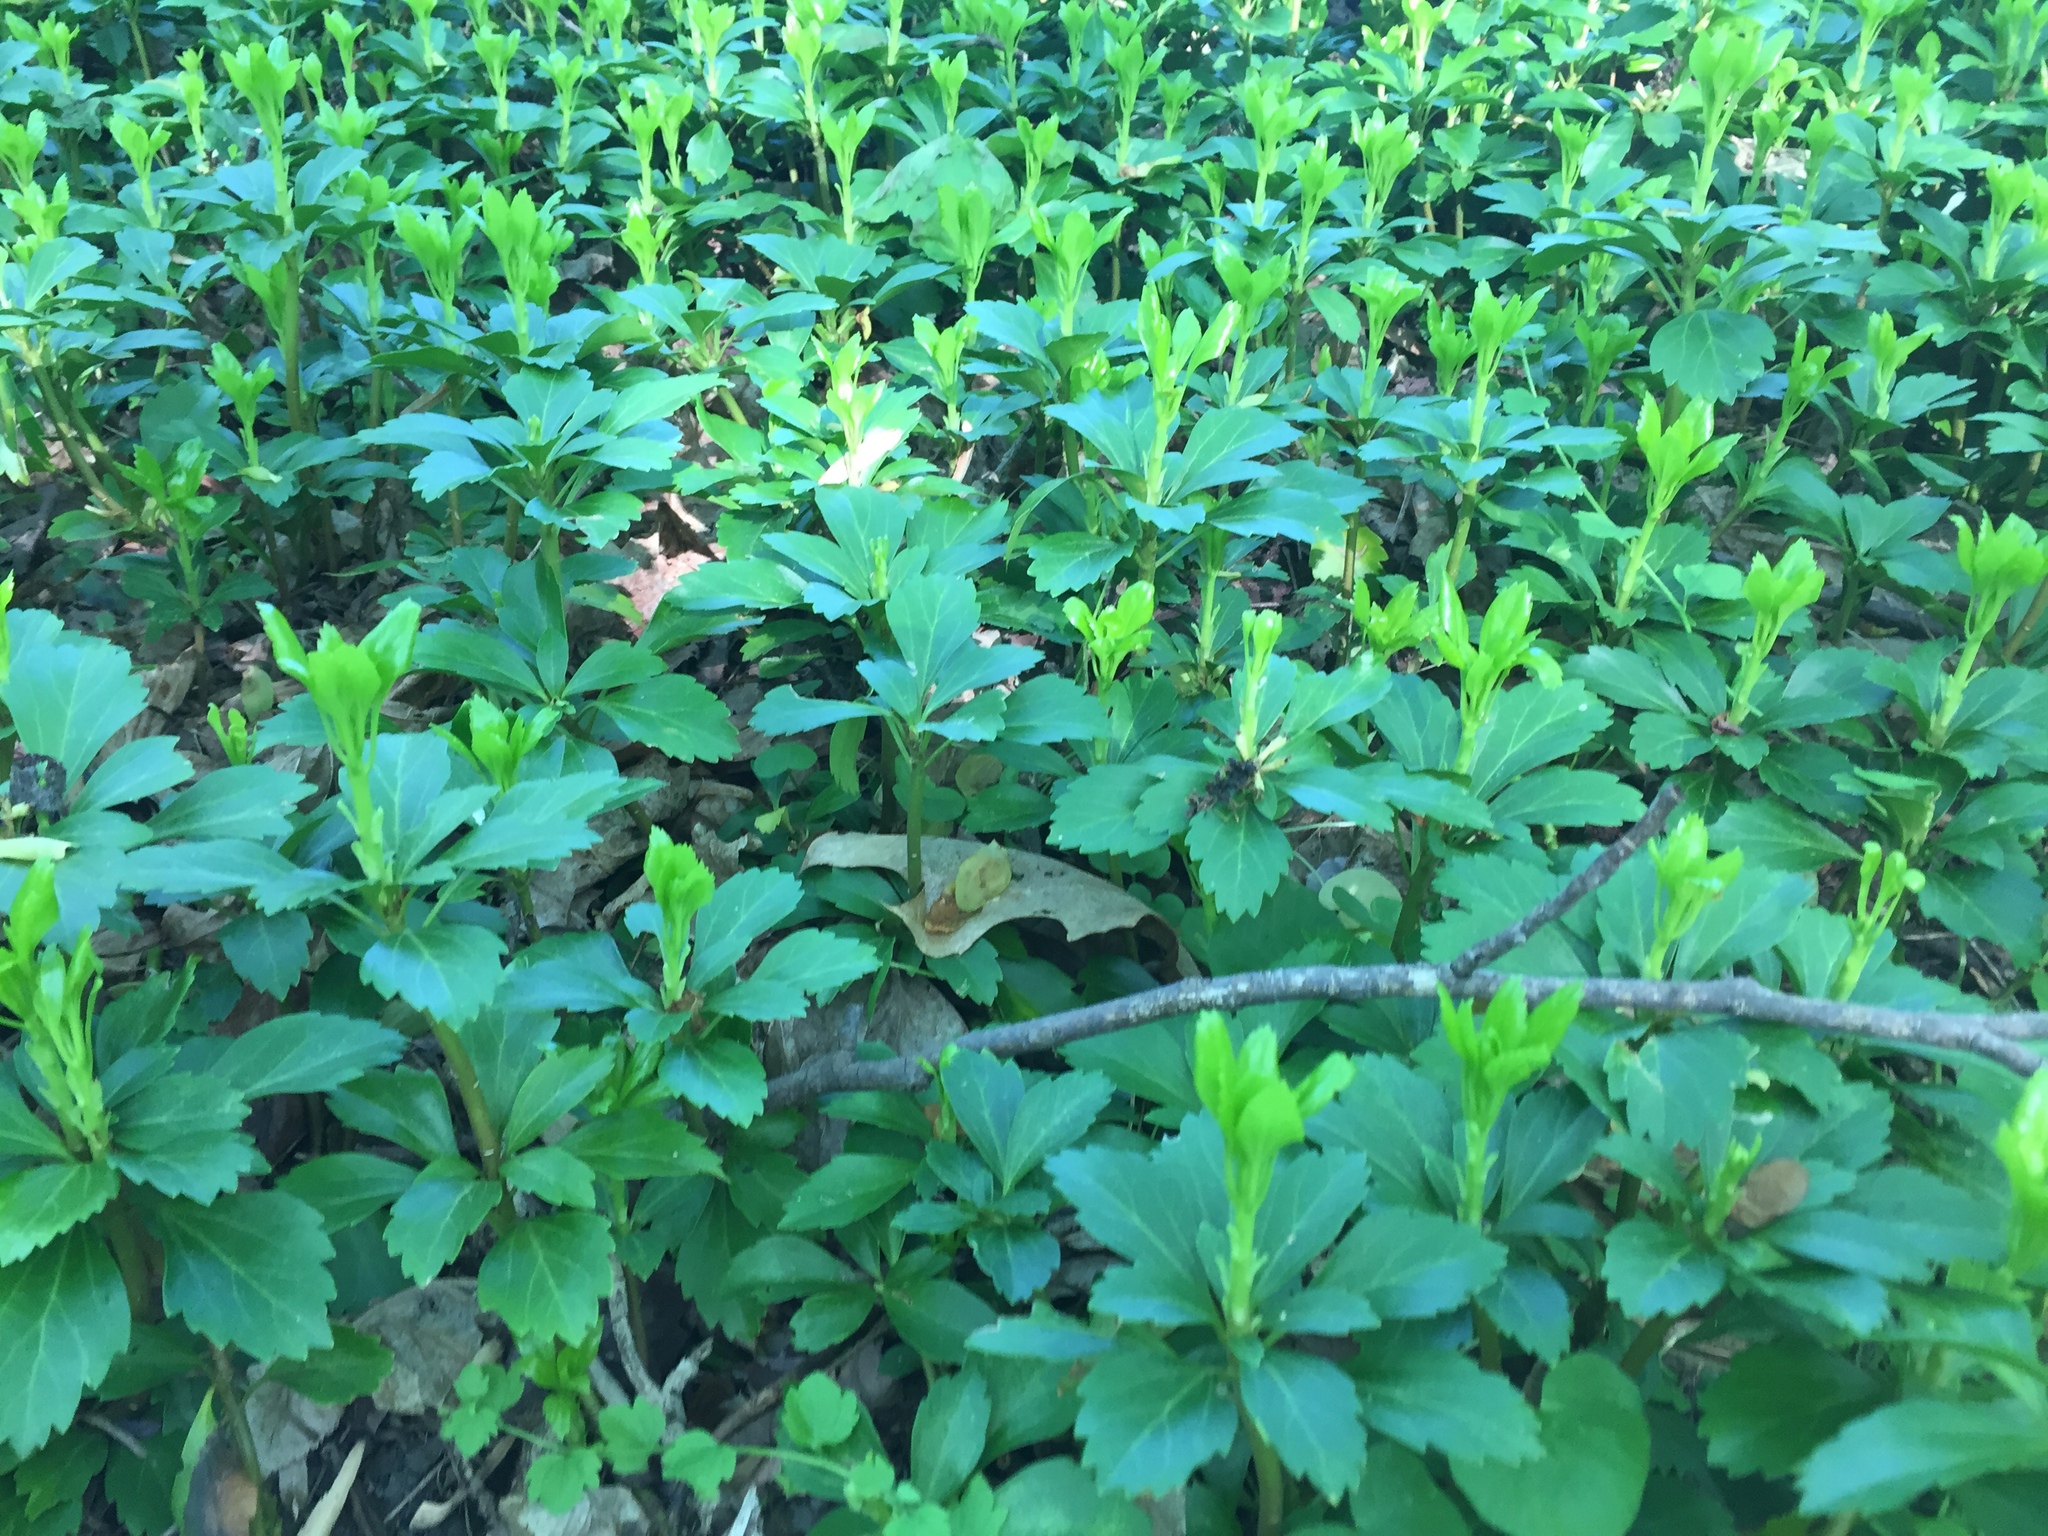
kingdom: Plantae
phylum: Tracheophyta
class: Magnoliopsida
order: Buxales
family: Buxaceae
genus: Pachysandra
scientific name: Pachysandra terminalis
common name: Japanese pachysandra
